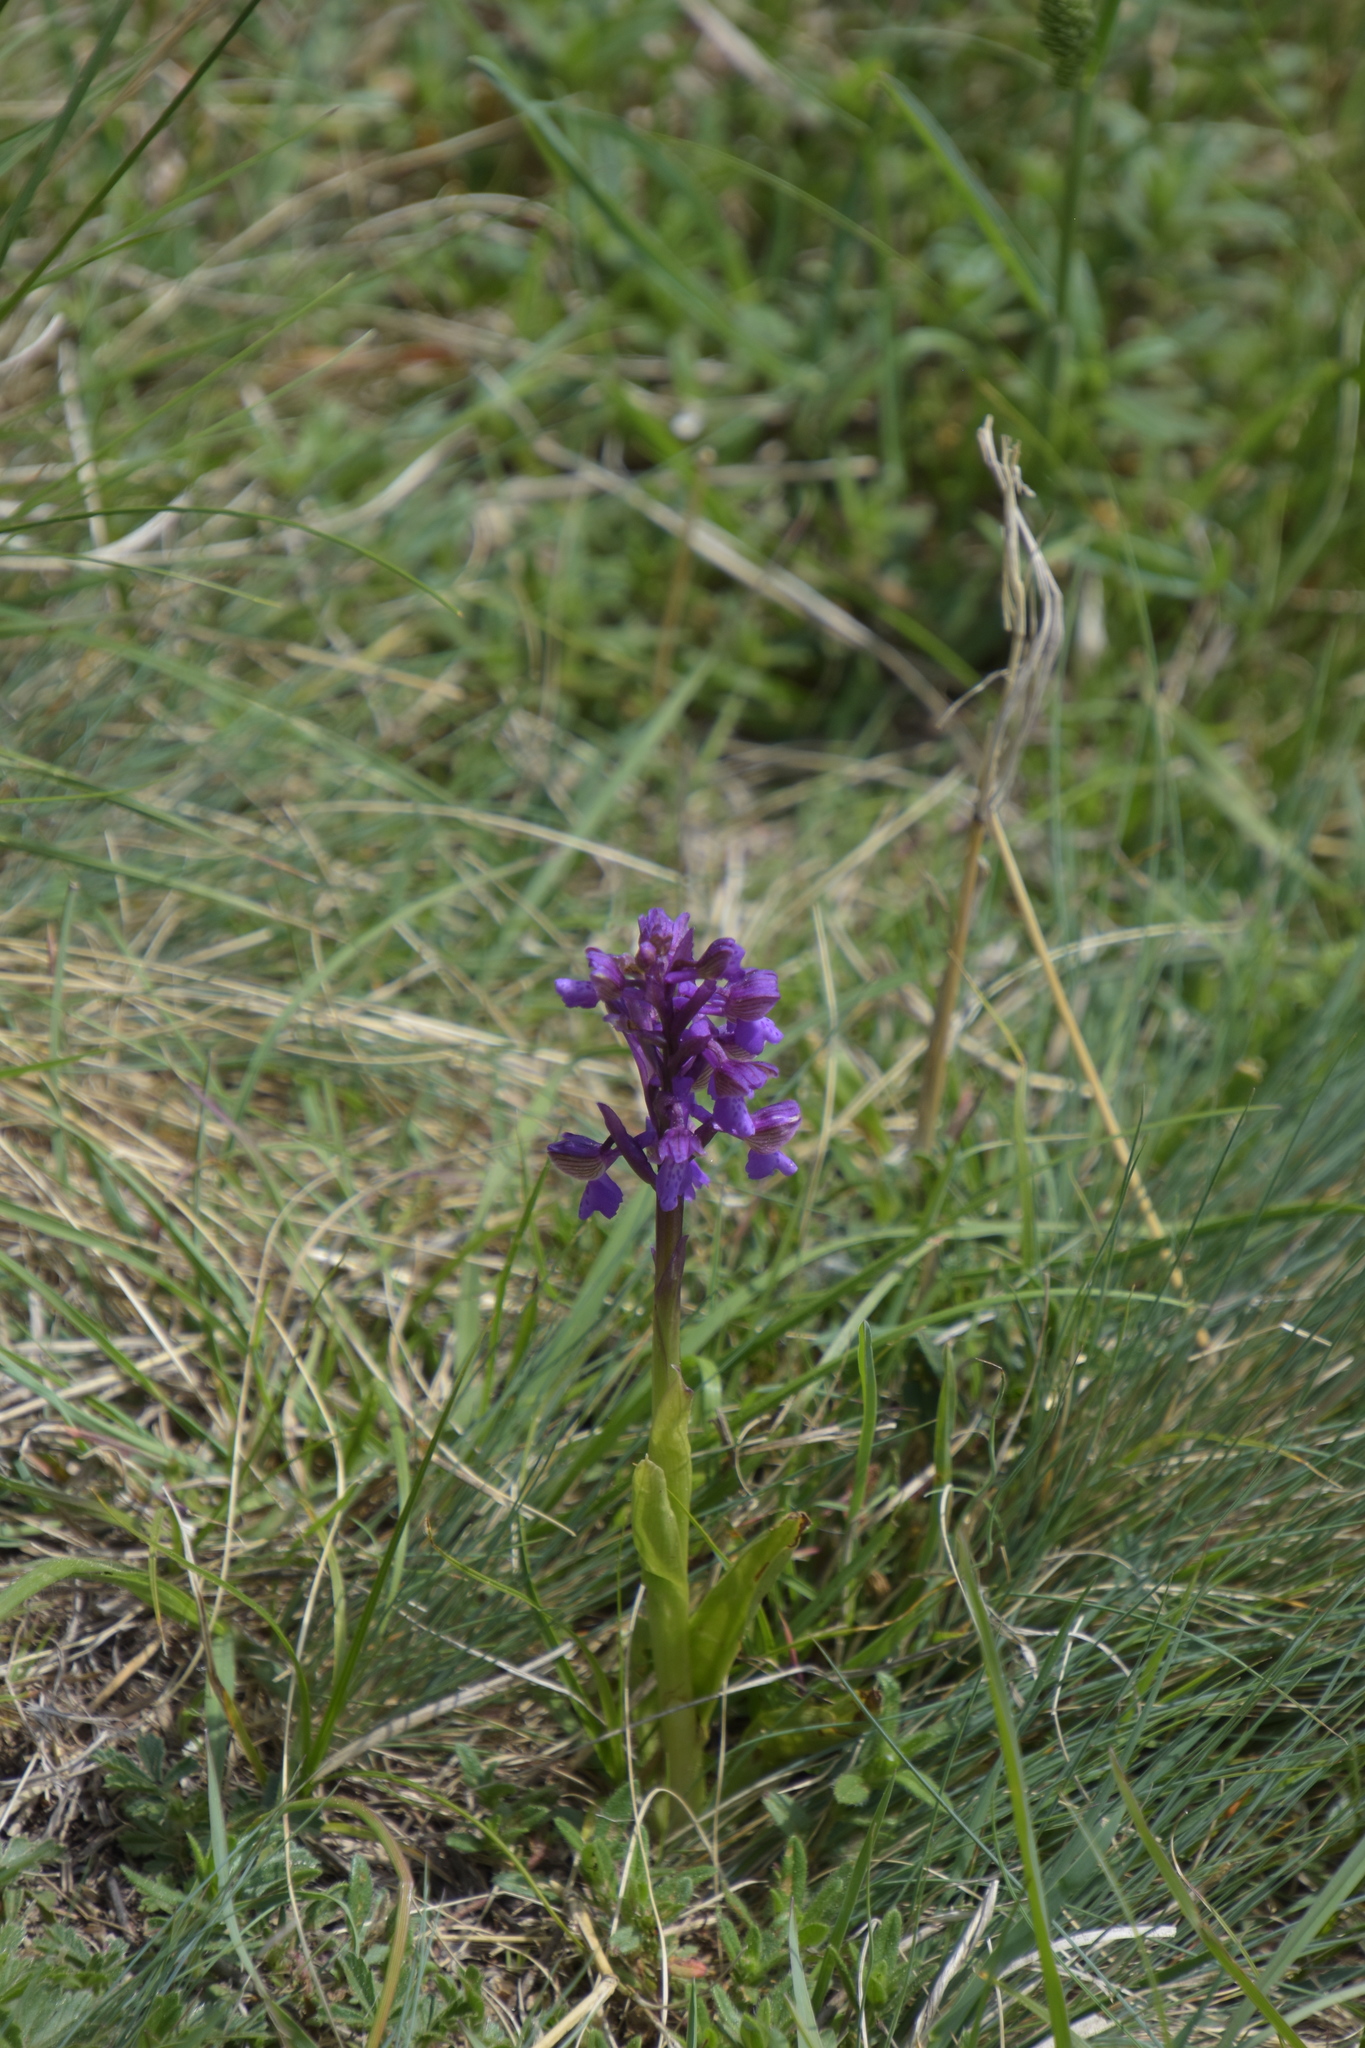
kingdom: Plantae
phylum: Tracheophyta
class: Liliopsida
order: Asparagales
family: Orchidaceae
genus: Anacamptis
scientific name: Anacamptis morio
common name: Green-winged orchid
